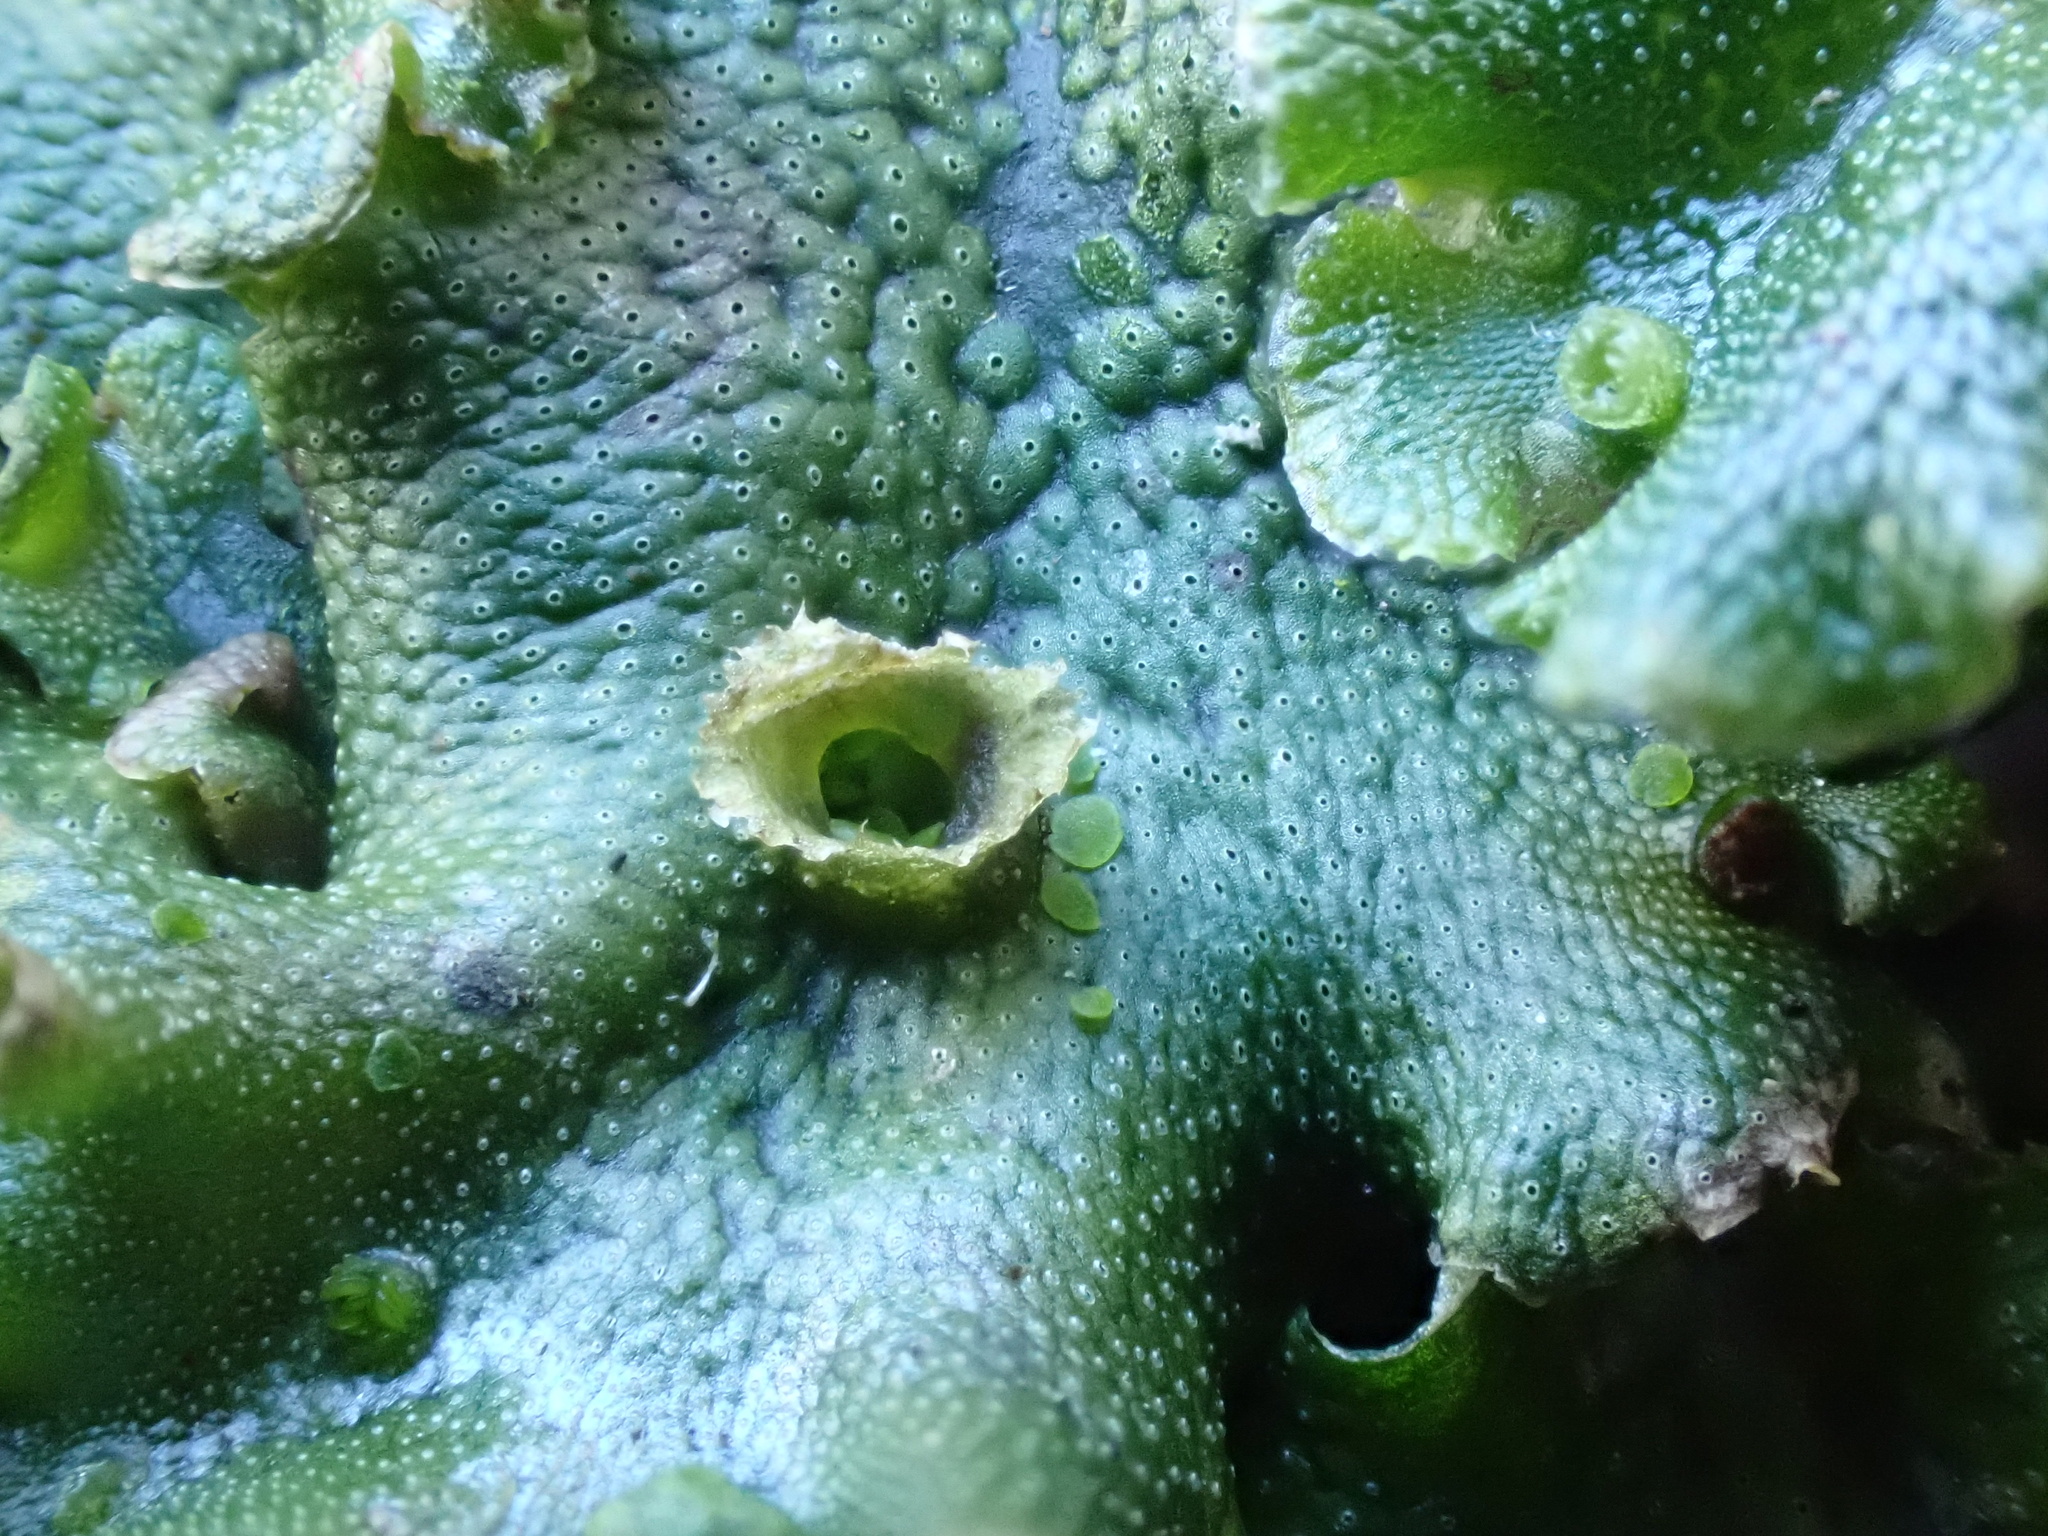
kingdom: Plantae
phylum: Marchantiophyta
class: Marchantiopsida
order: Marchantiales
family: Marchantiaceae
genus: Marchantia
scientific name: Marchantia polymorpha
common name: Common liverwort
